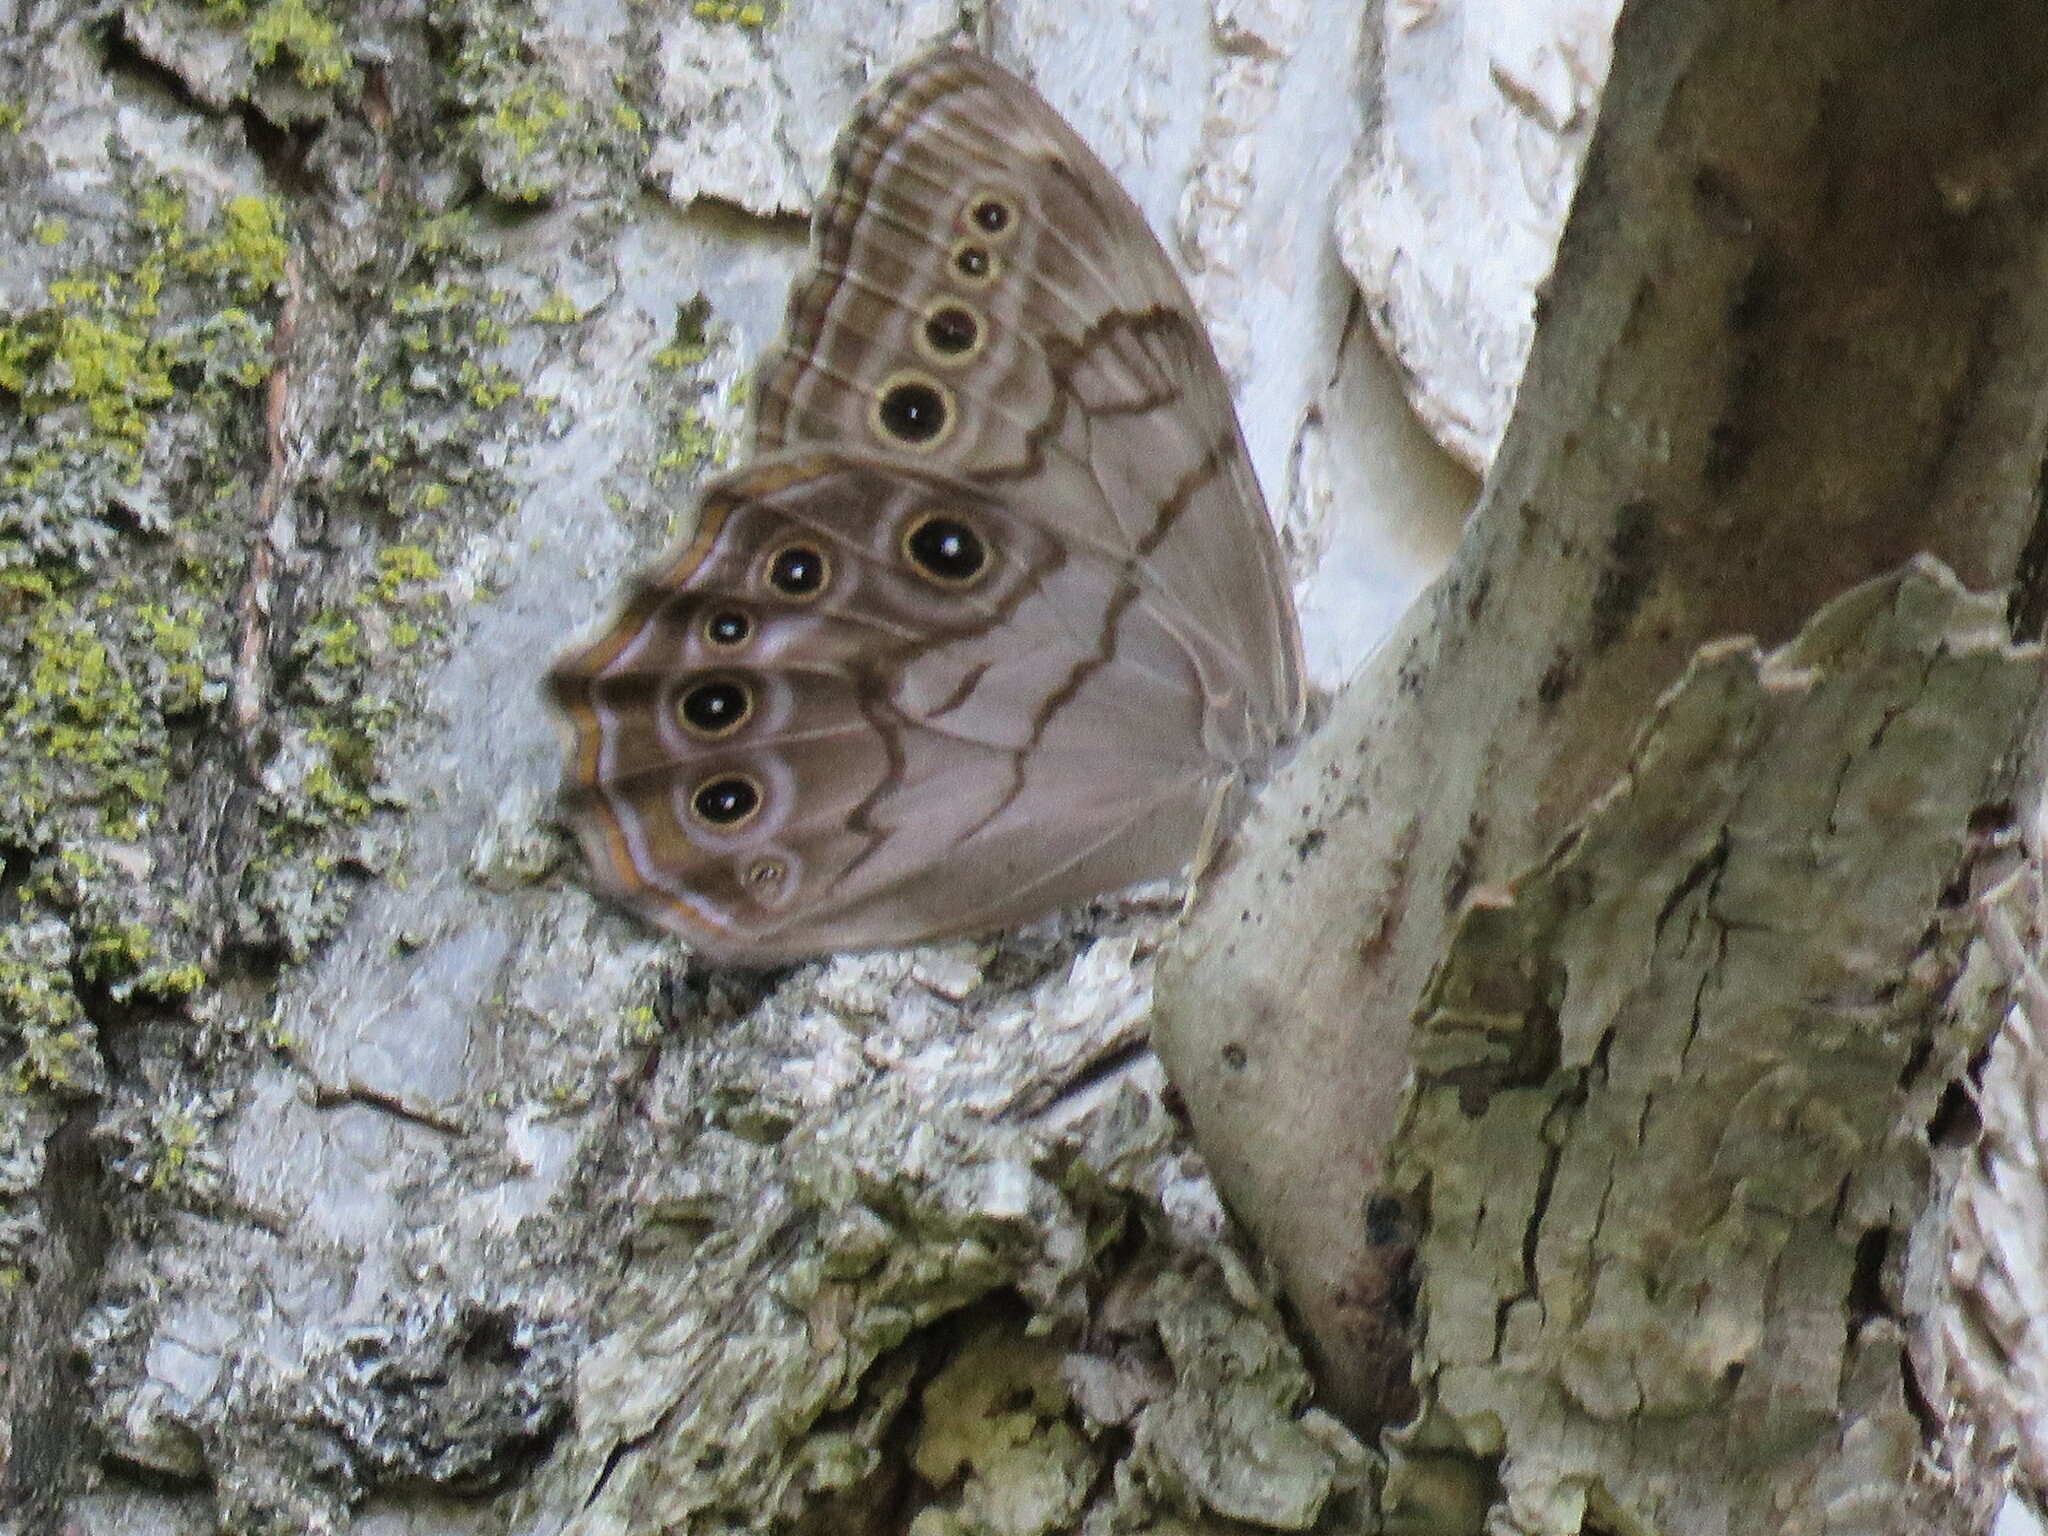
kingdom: Animalia
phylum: Arthropoda
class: Insecta
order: Lepidoptera
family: Nymphalidae
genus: Lethe
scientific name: Lethe anthedon
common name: Northern pearly-eye
